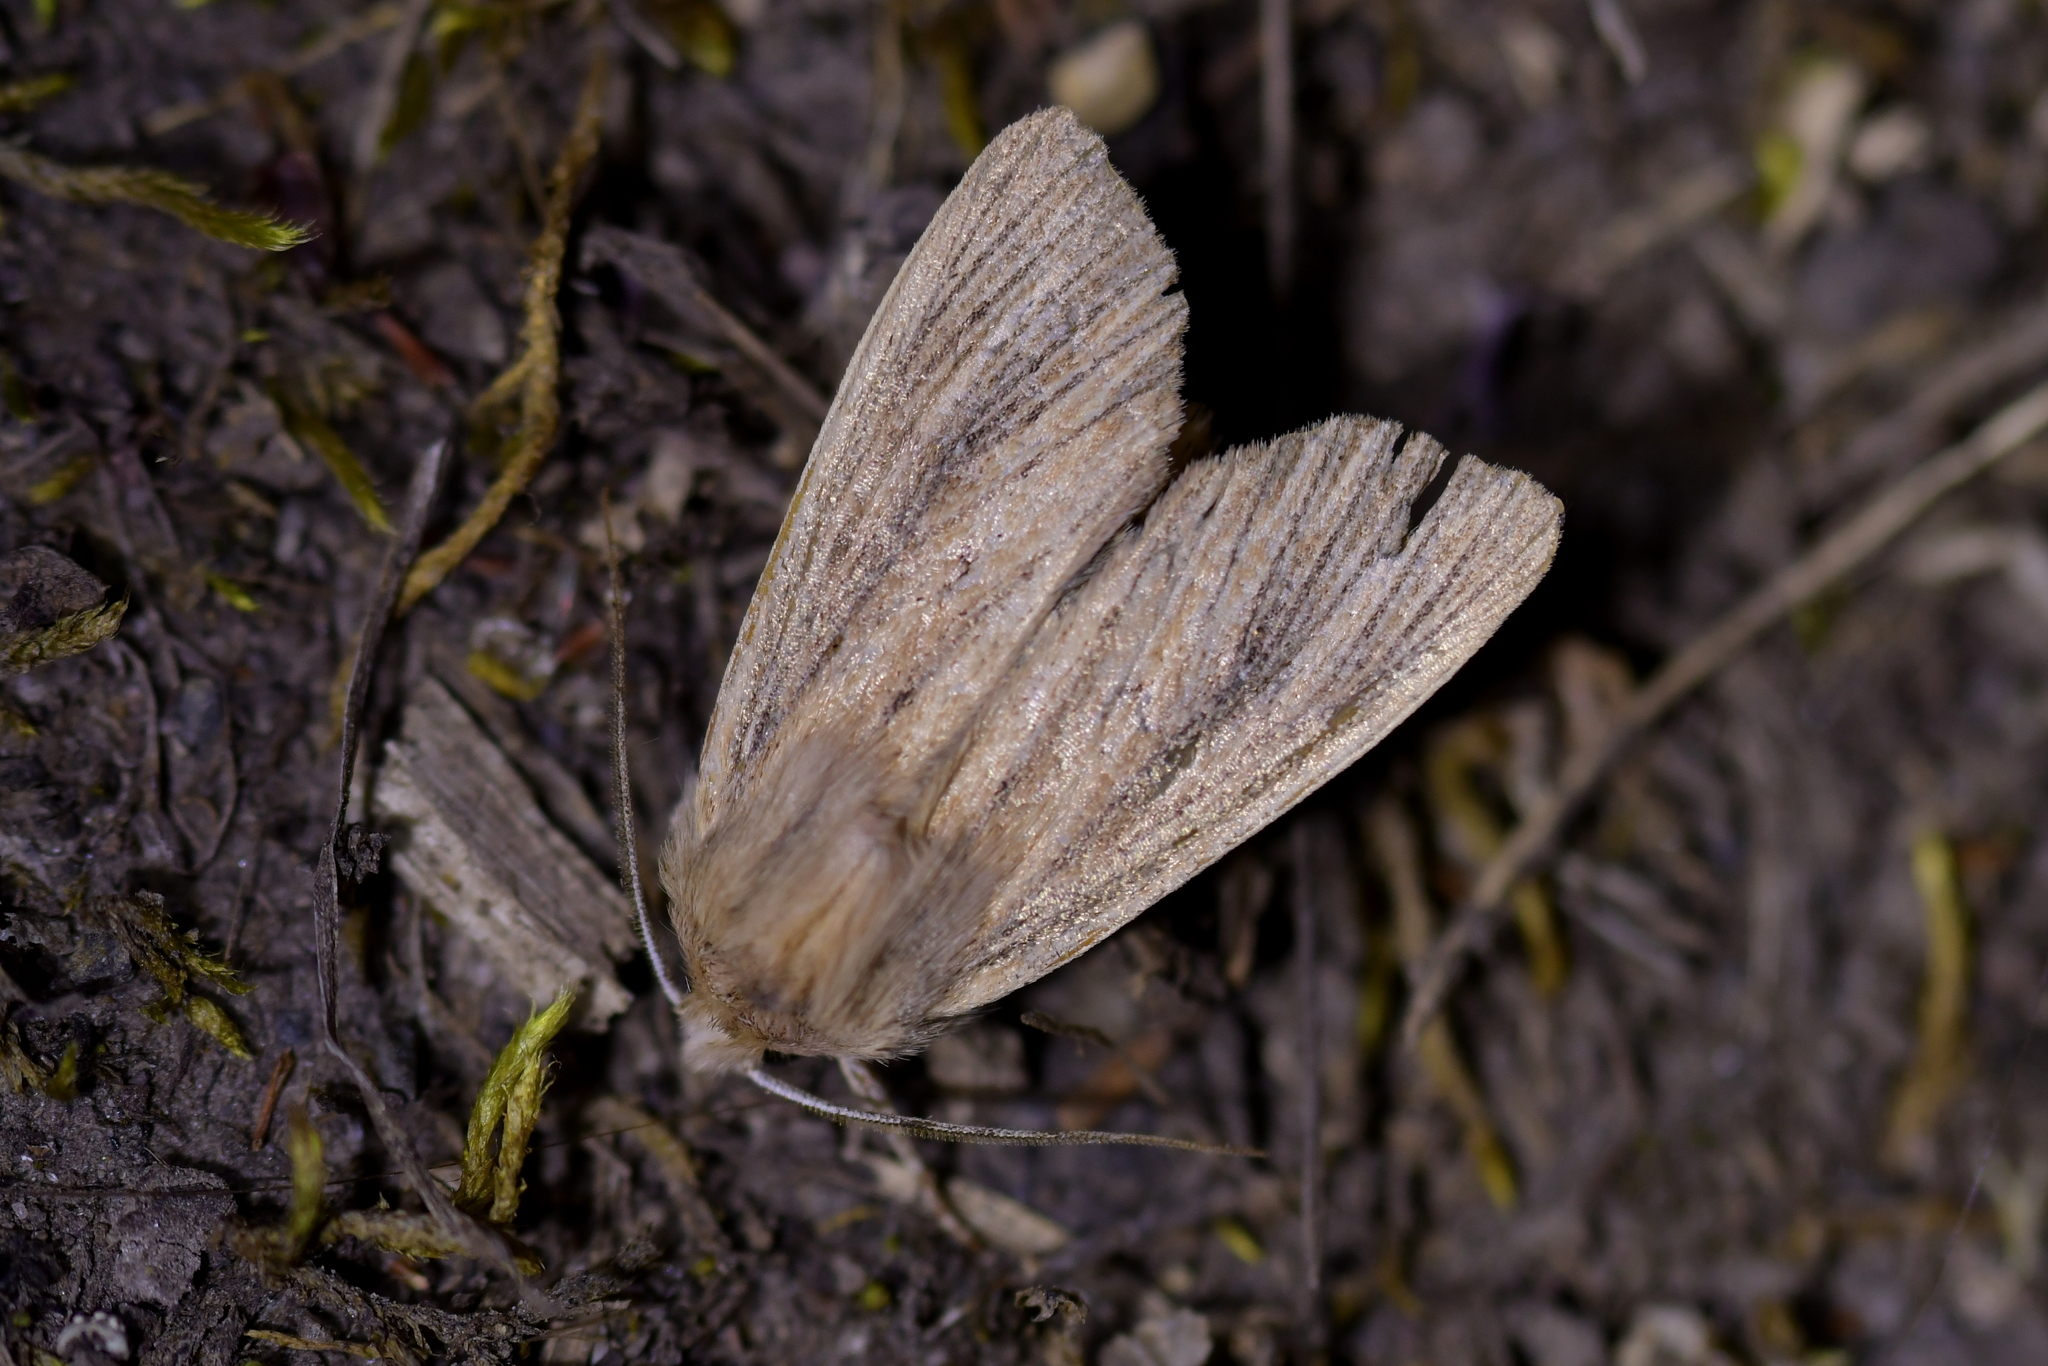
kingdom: Animalia
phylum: Arthropoda
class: Insecta
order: Lepidoptera
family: Noctuidae
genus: Ichneutica
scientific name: Ichneutica arotis
